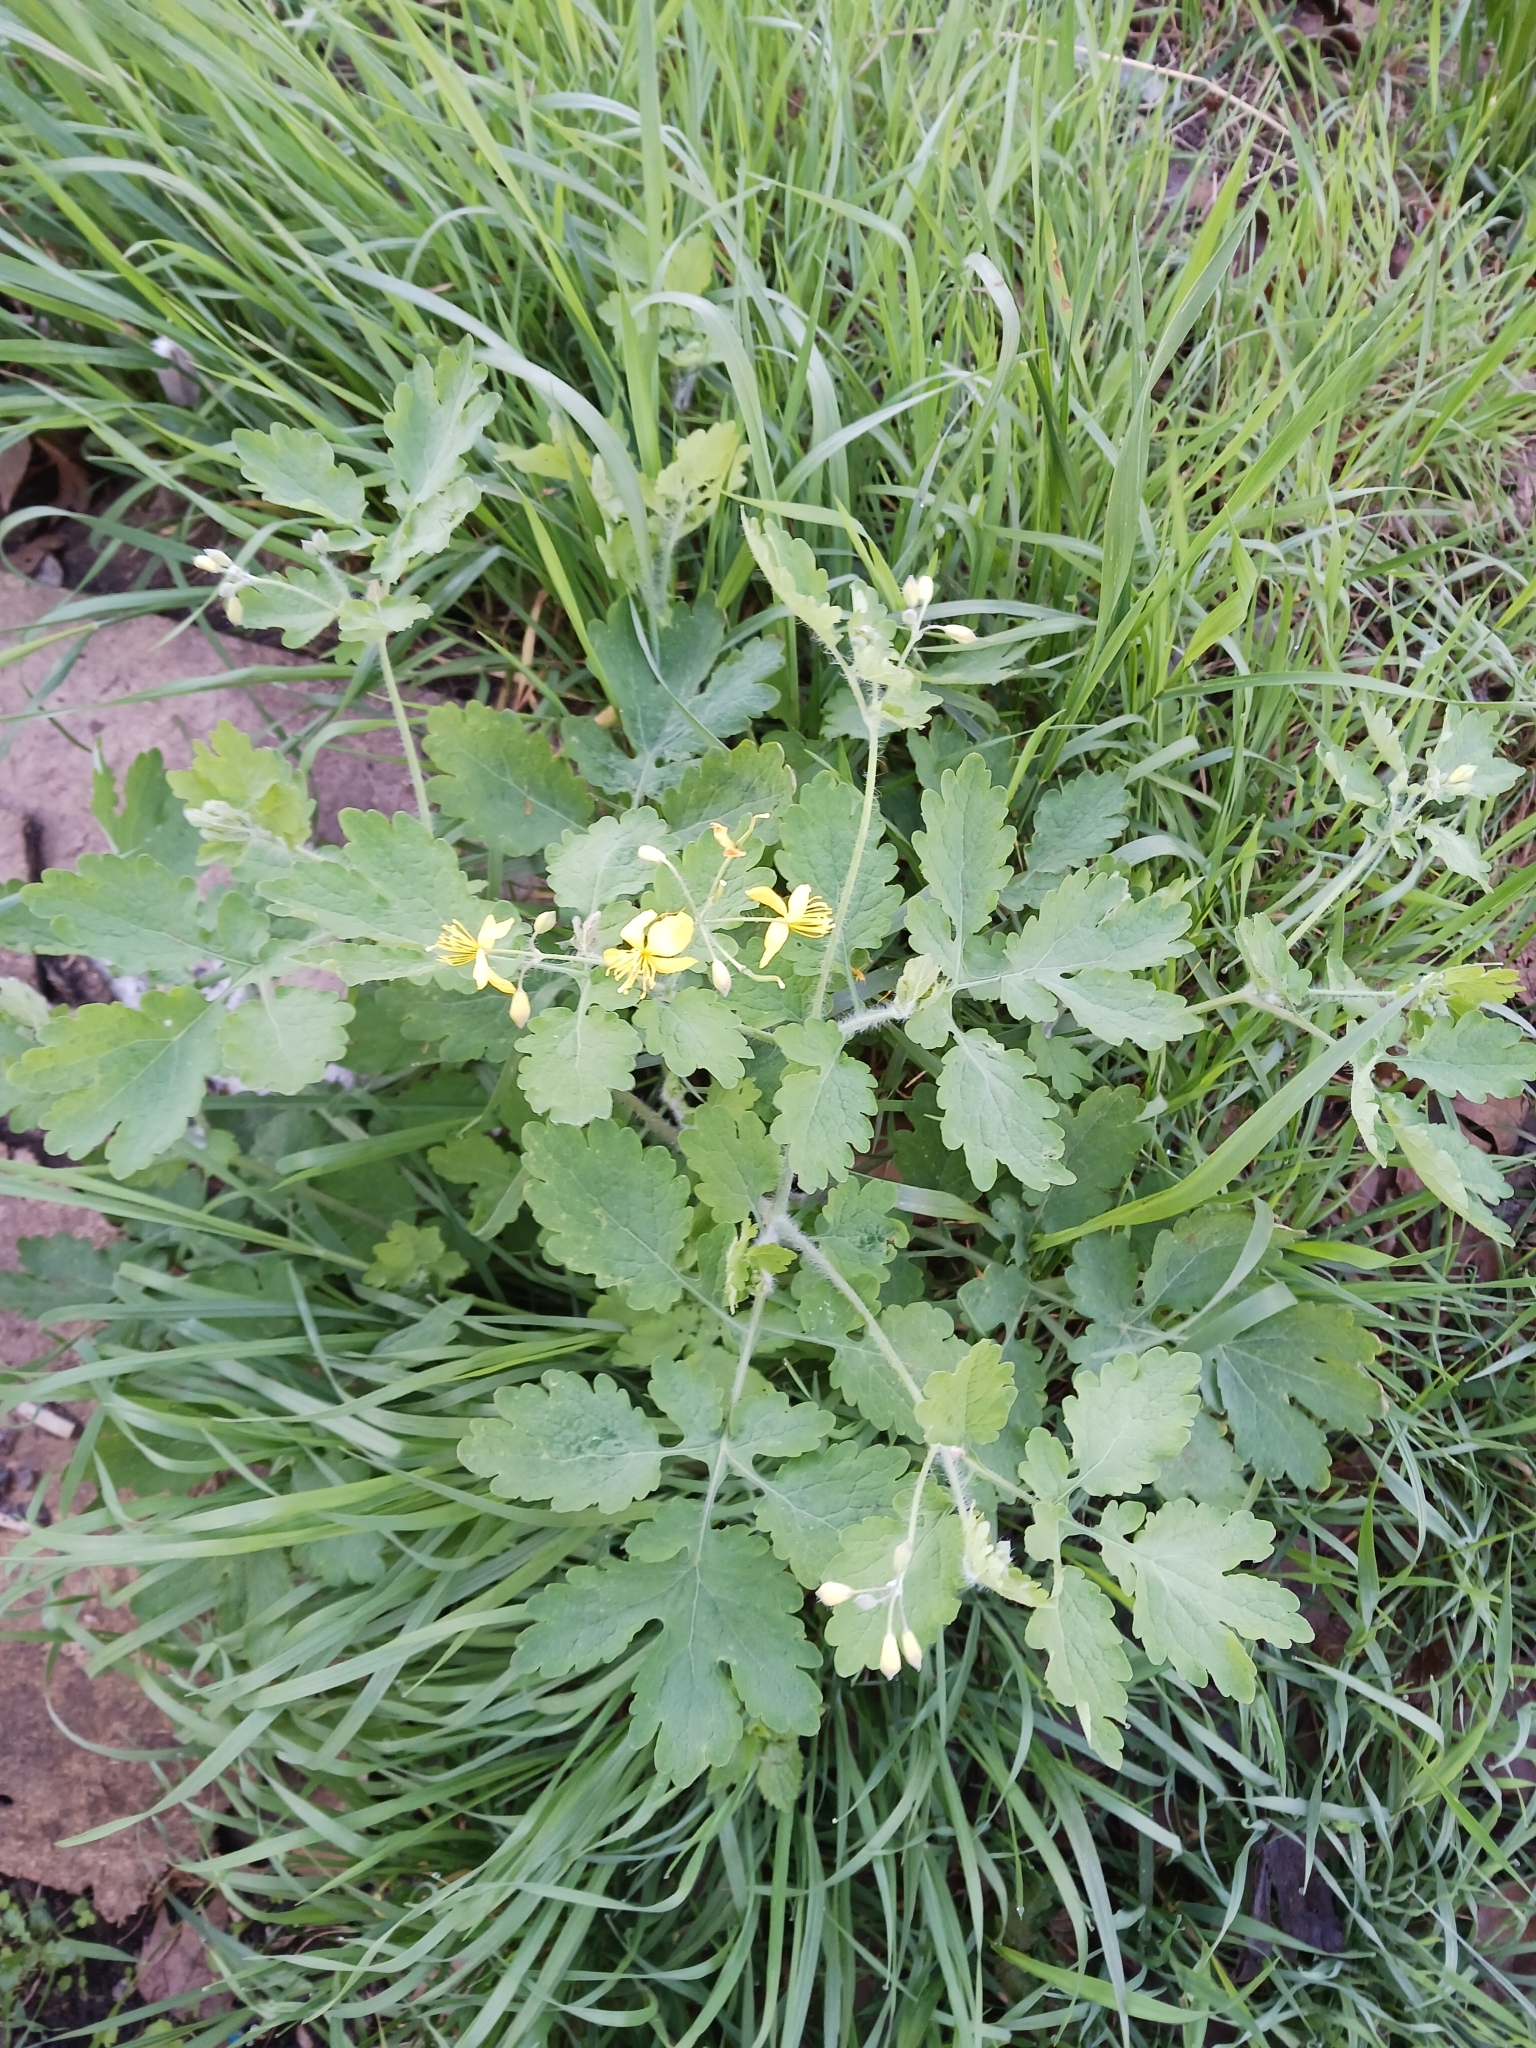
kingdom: Plantae
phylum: Tracheophyta
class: Magnoliopsida
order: Ranunculales
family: Papaveraceae
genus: Chelidonium
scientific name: Chelidonium majus
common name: Greater celandine
